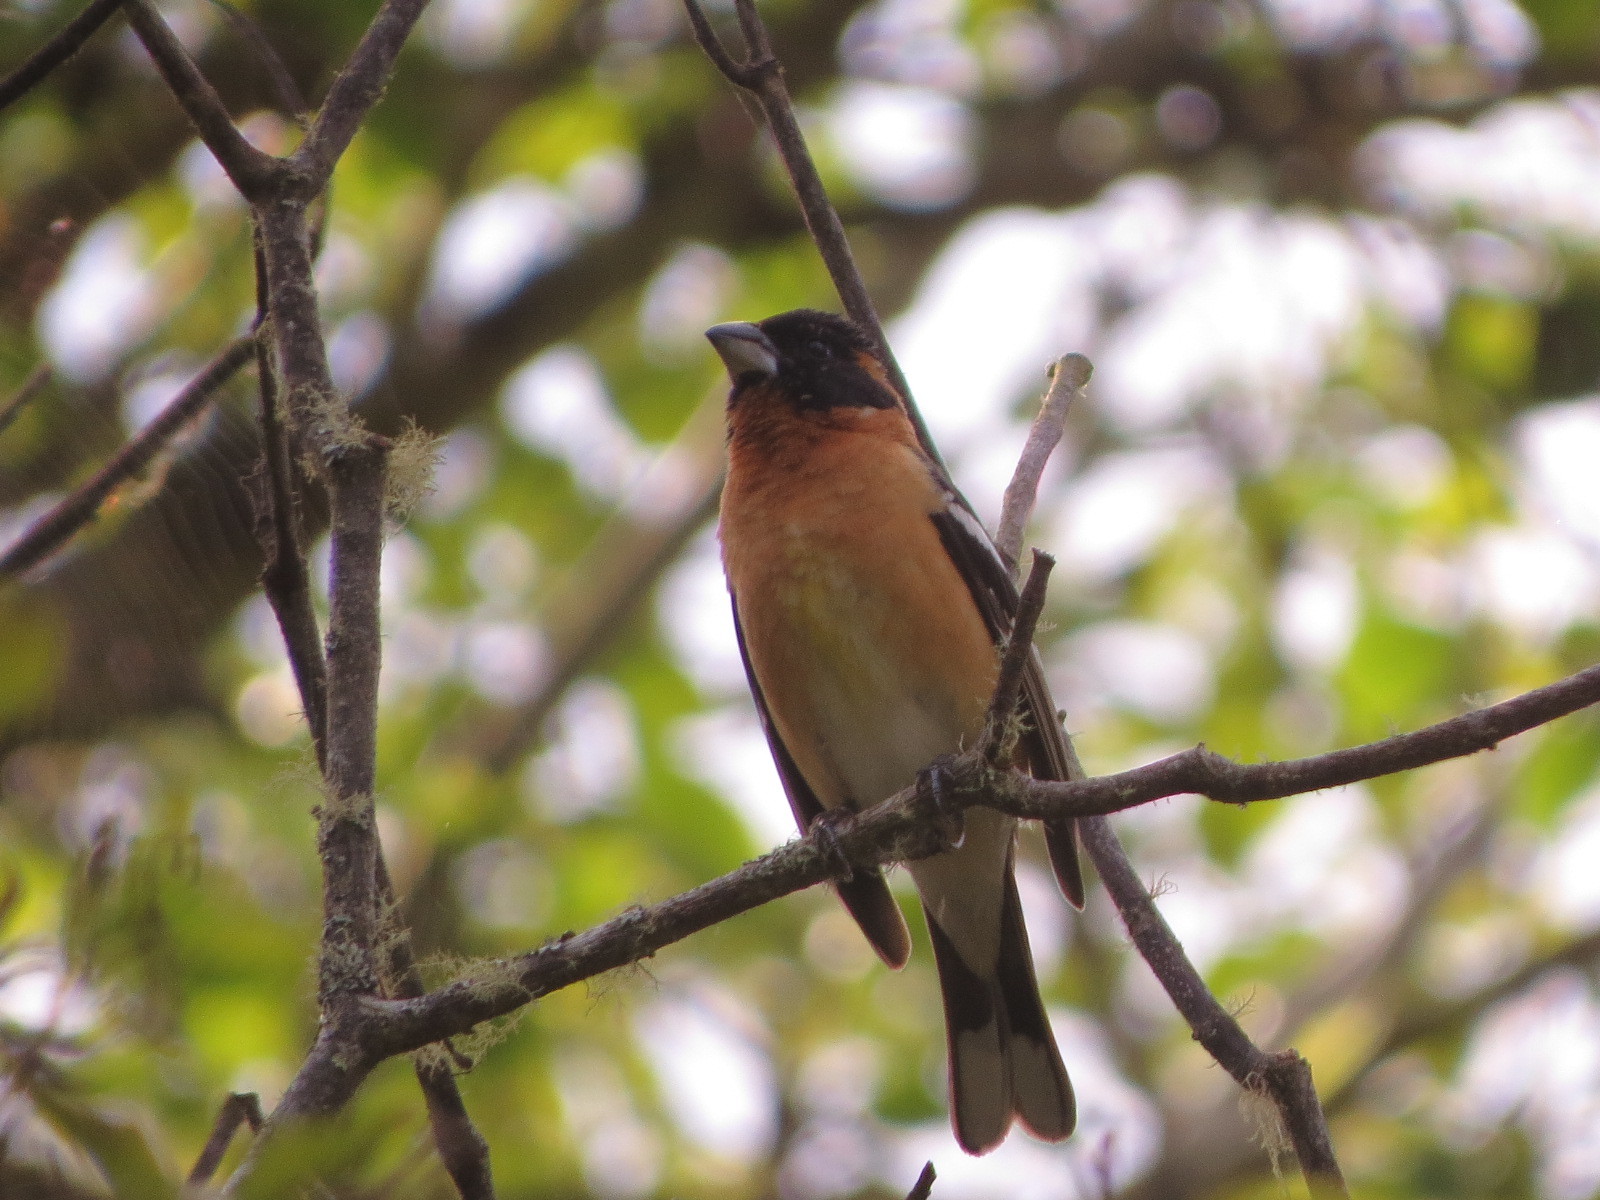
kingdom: Animalia
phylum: Chordata
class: Aves
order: Passeriformes
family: Cardinalidae
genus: Pheucticus
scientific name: Pheucticus melanocephalus
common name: Black-headed grosbeak
